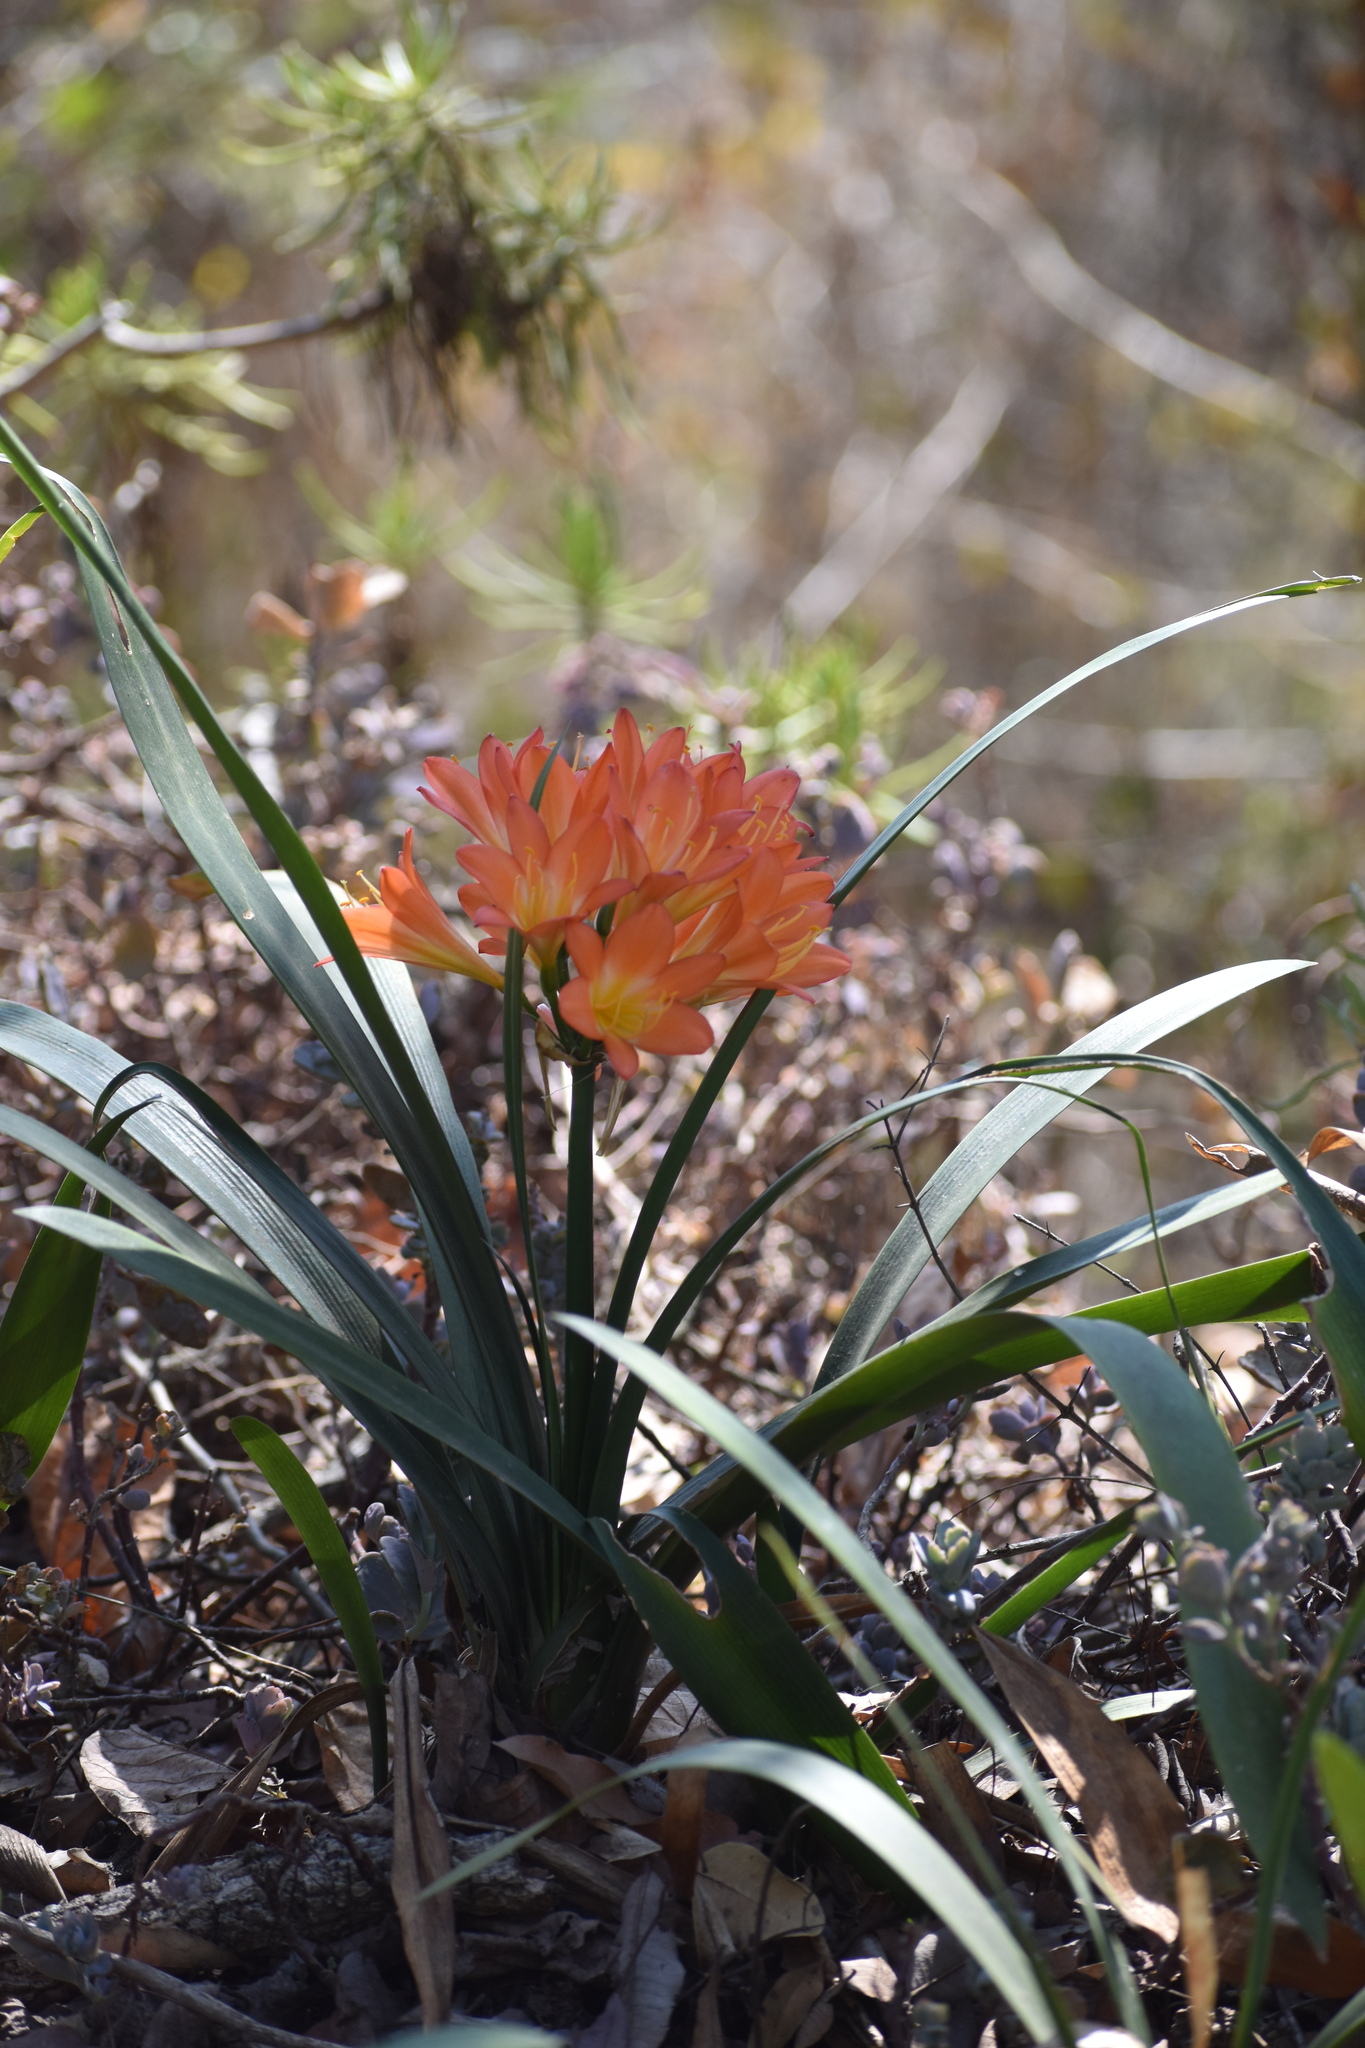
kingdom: Plantae
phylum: Tracheophyta
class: Liliopsida
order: Asparagales
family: Amaryllidaceae
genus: Clivia
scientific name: Clivia miniata
